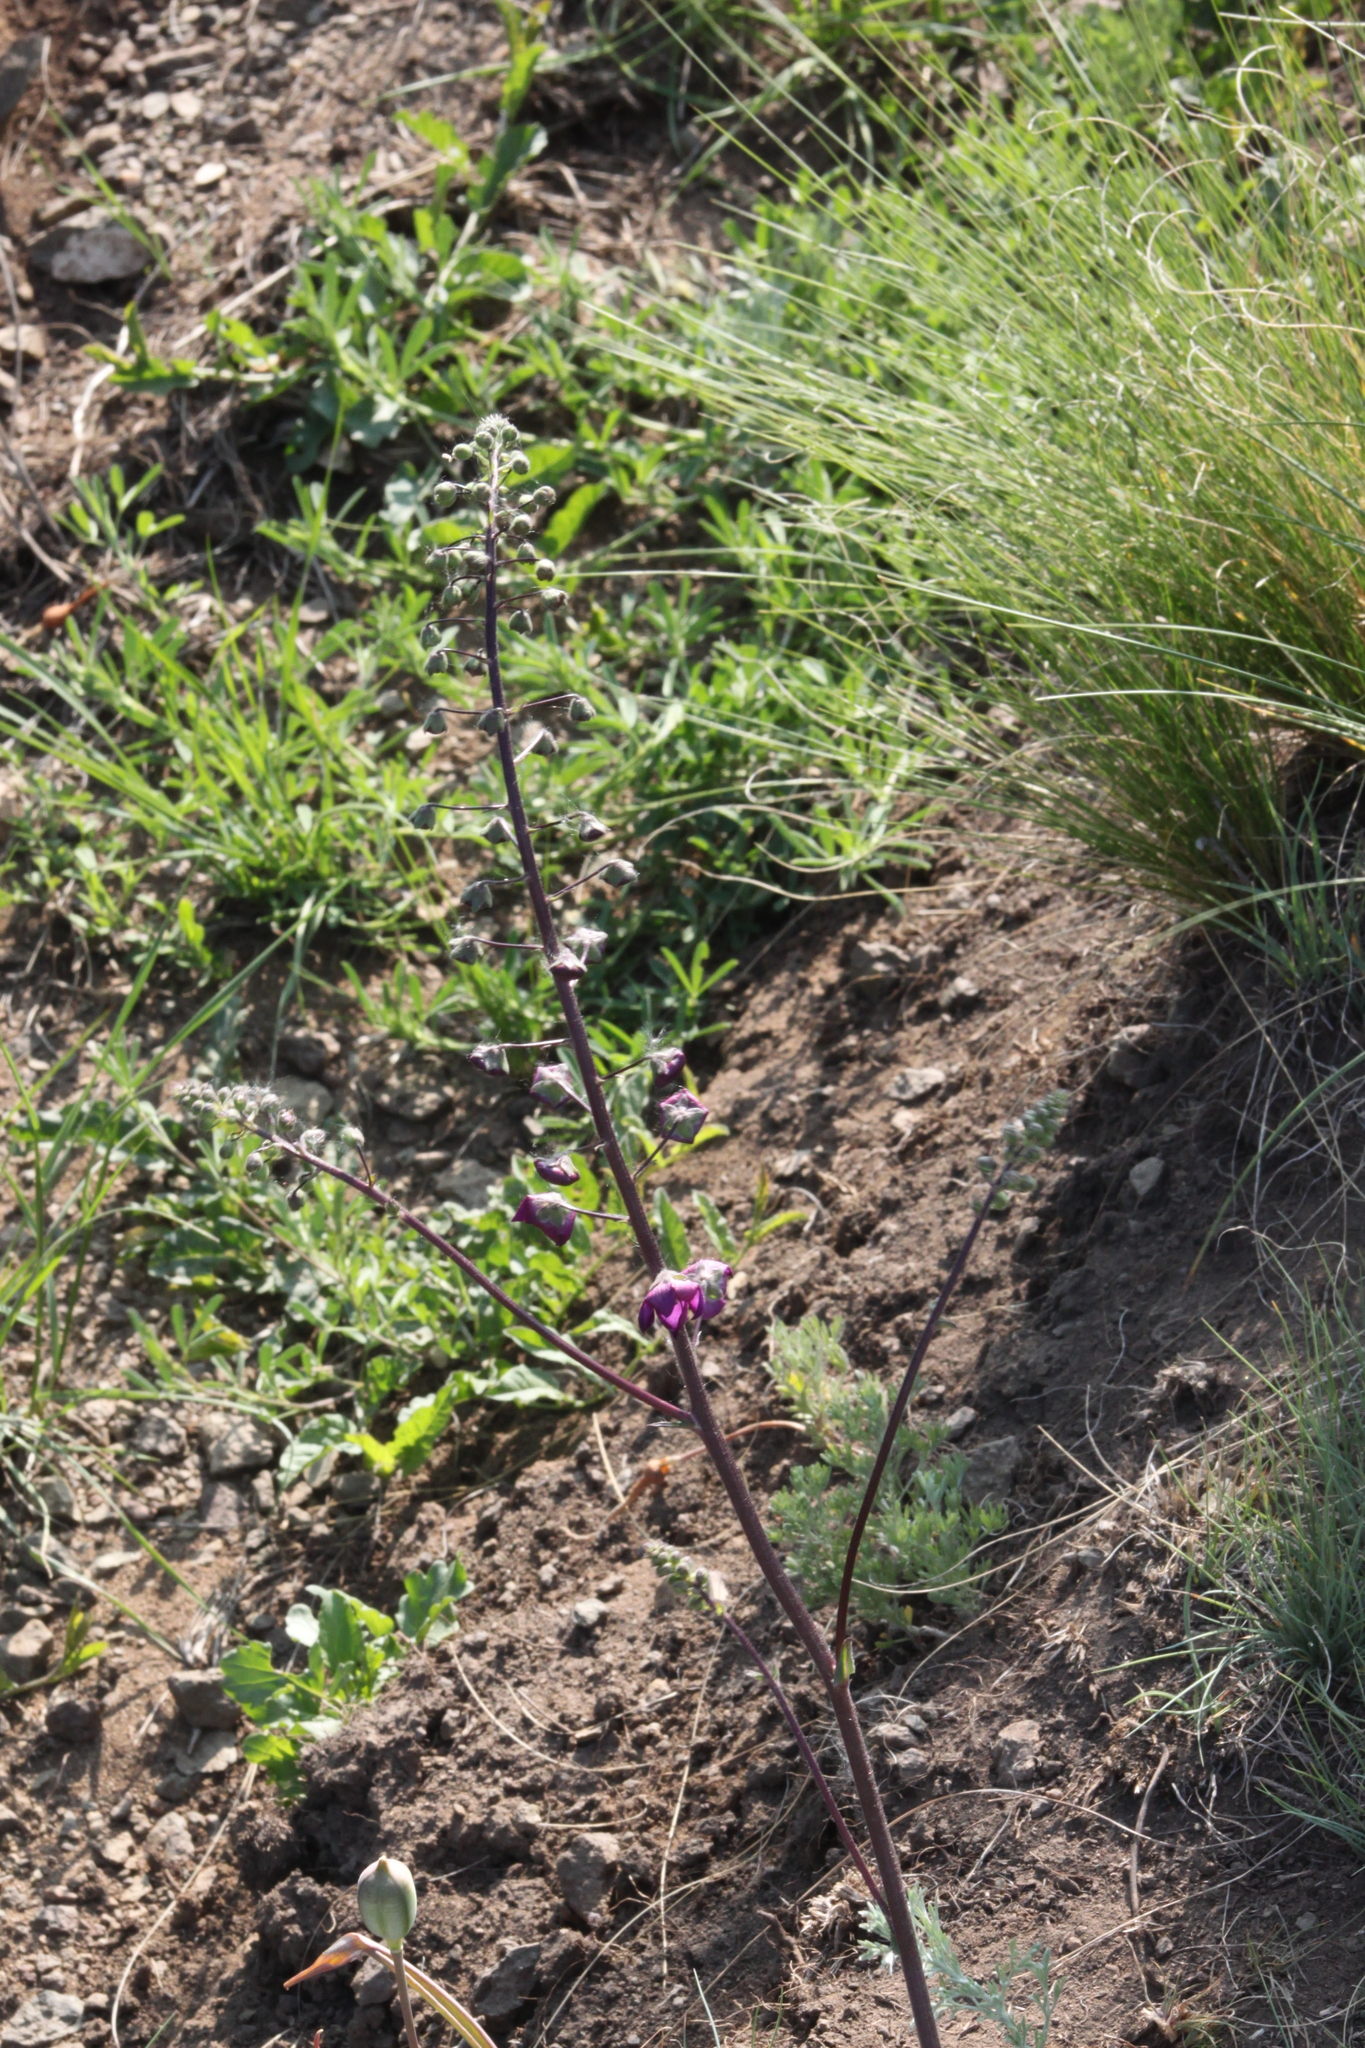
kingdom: Plantae
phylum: Tracheophyta
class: Magnoliopsida
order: Lamiales
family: Scrophulariaceae
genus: Verbascum
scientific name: Verbascum phoeniceum
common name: Purple mullein
